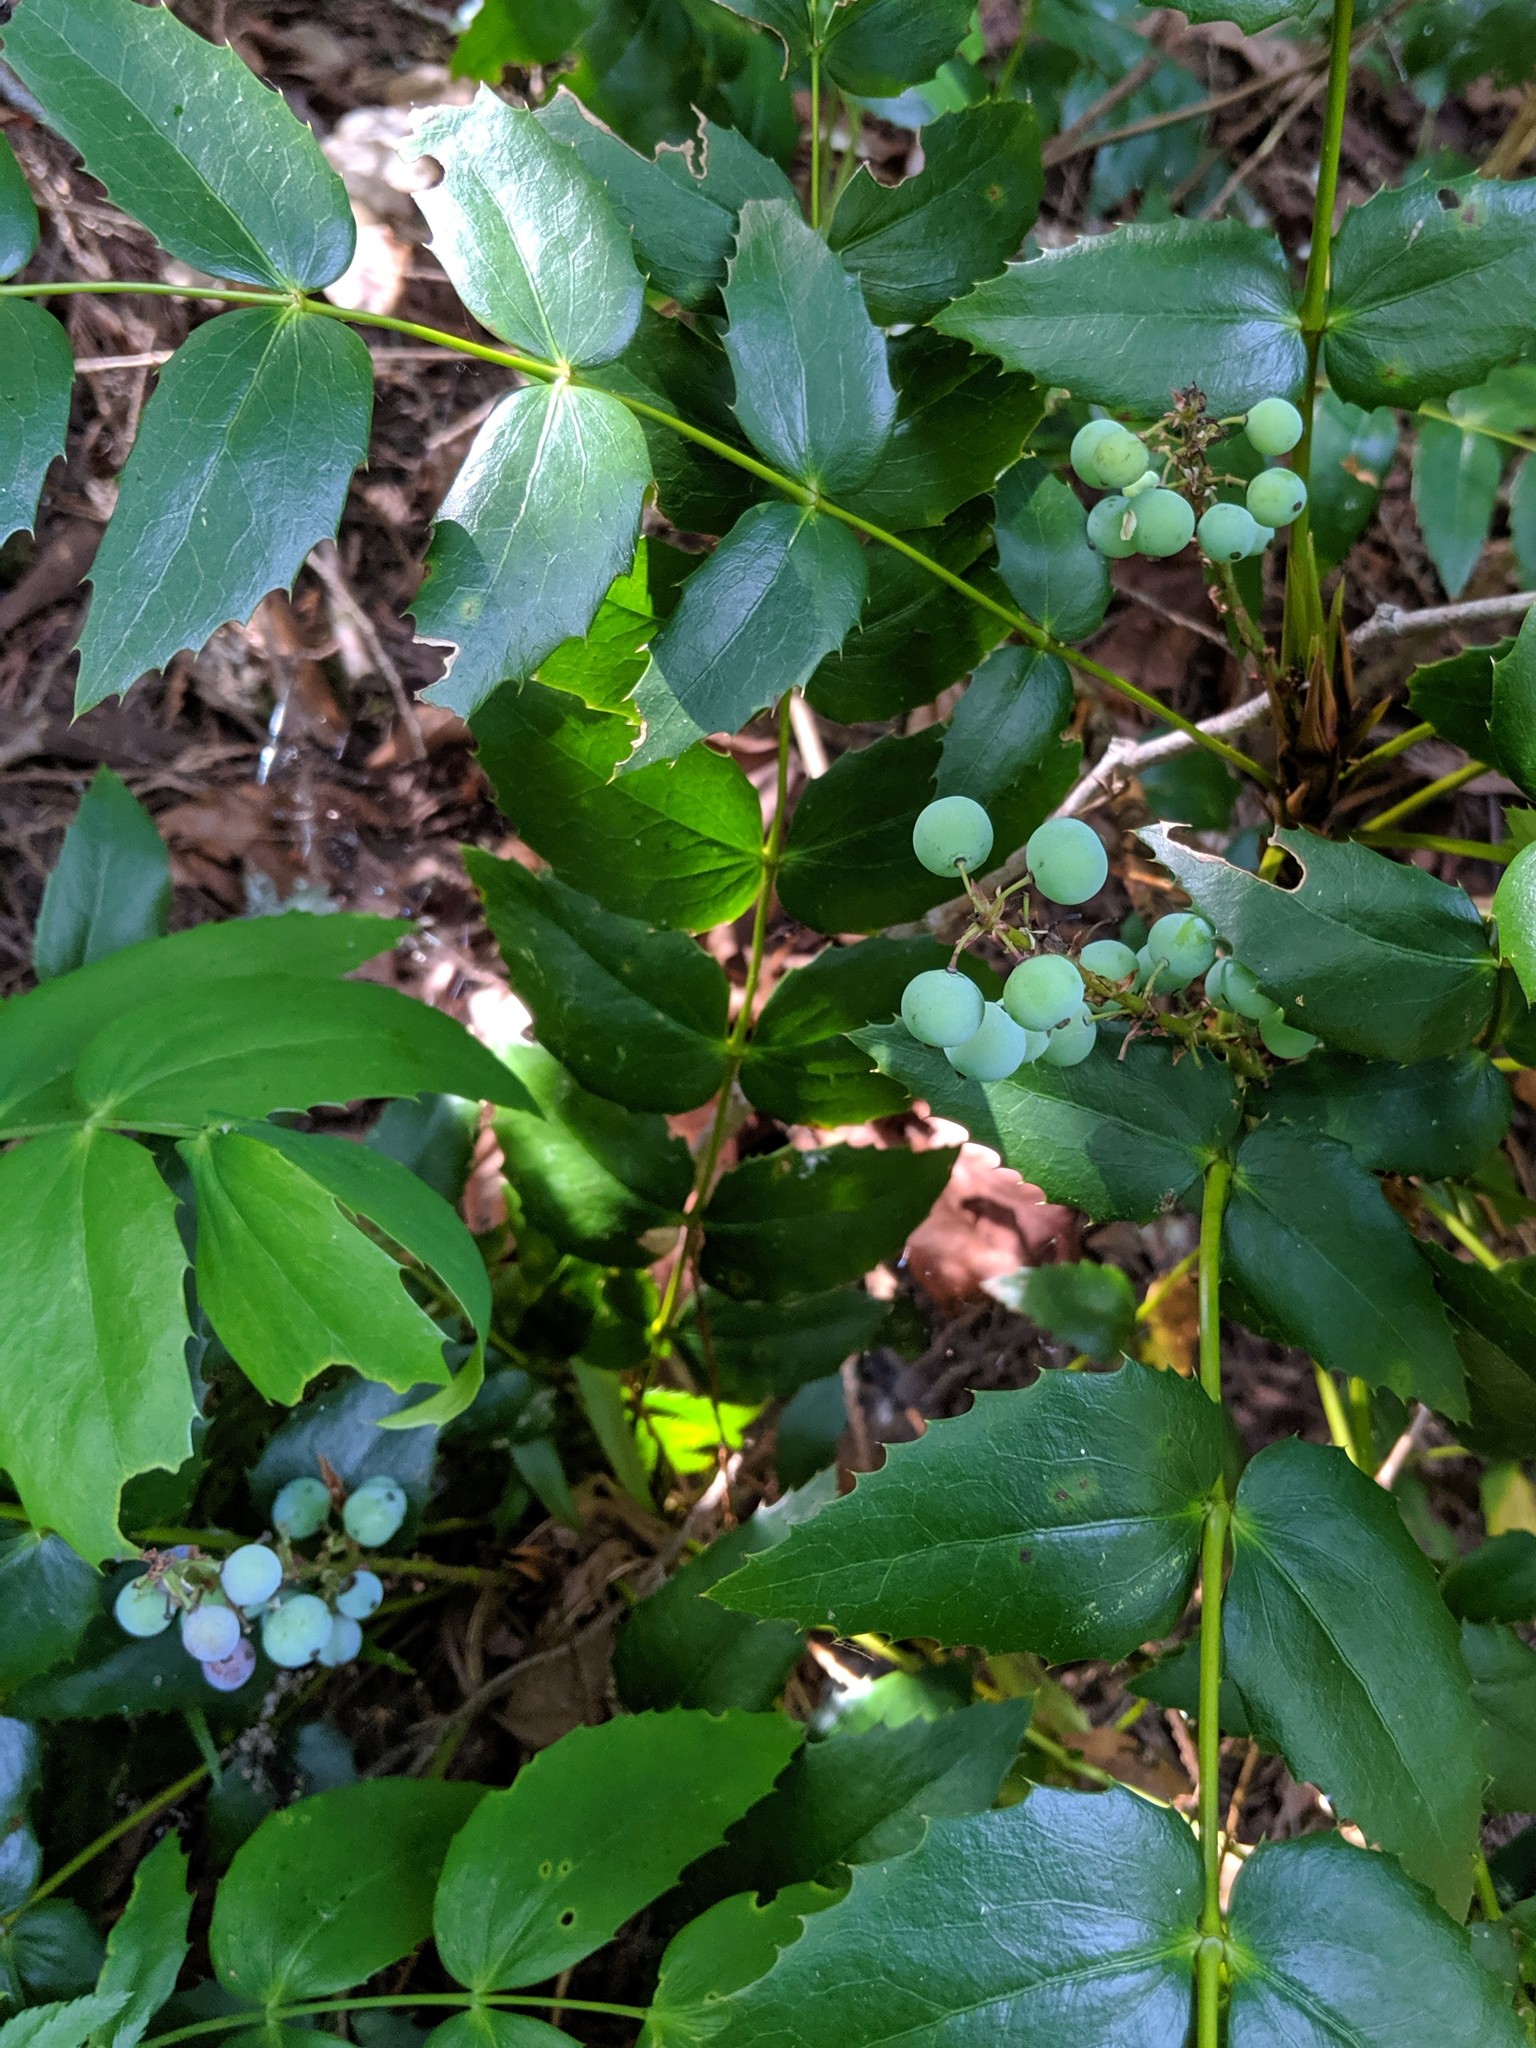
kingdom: Plantae
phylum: Tracheophyta
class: Magnoliopsida
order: Ranunculales
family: Berberidaceae
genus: Mahonia
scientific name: Mahonia nervosa
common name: Cascade oregon-grape
